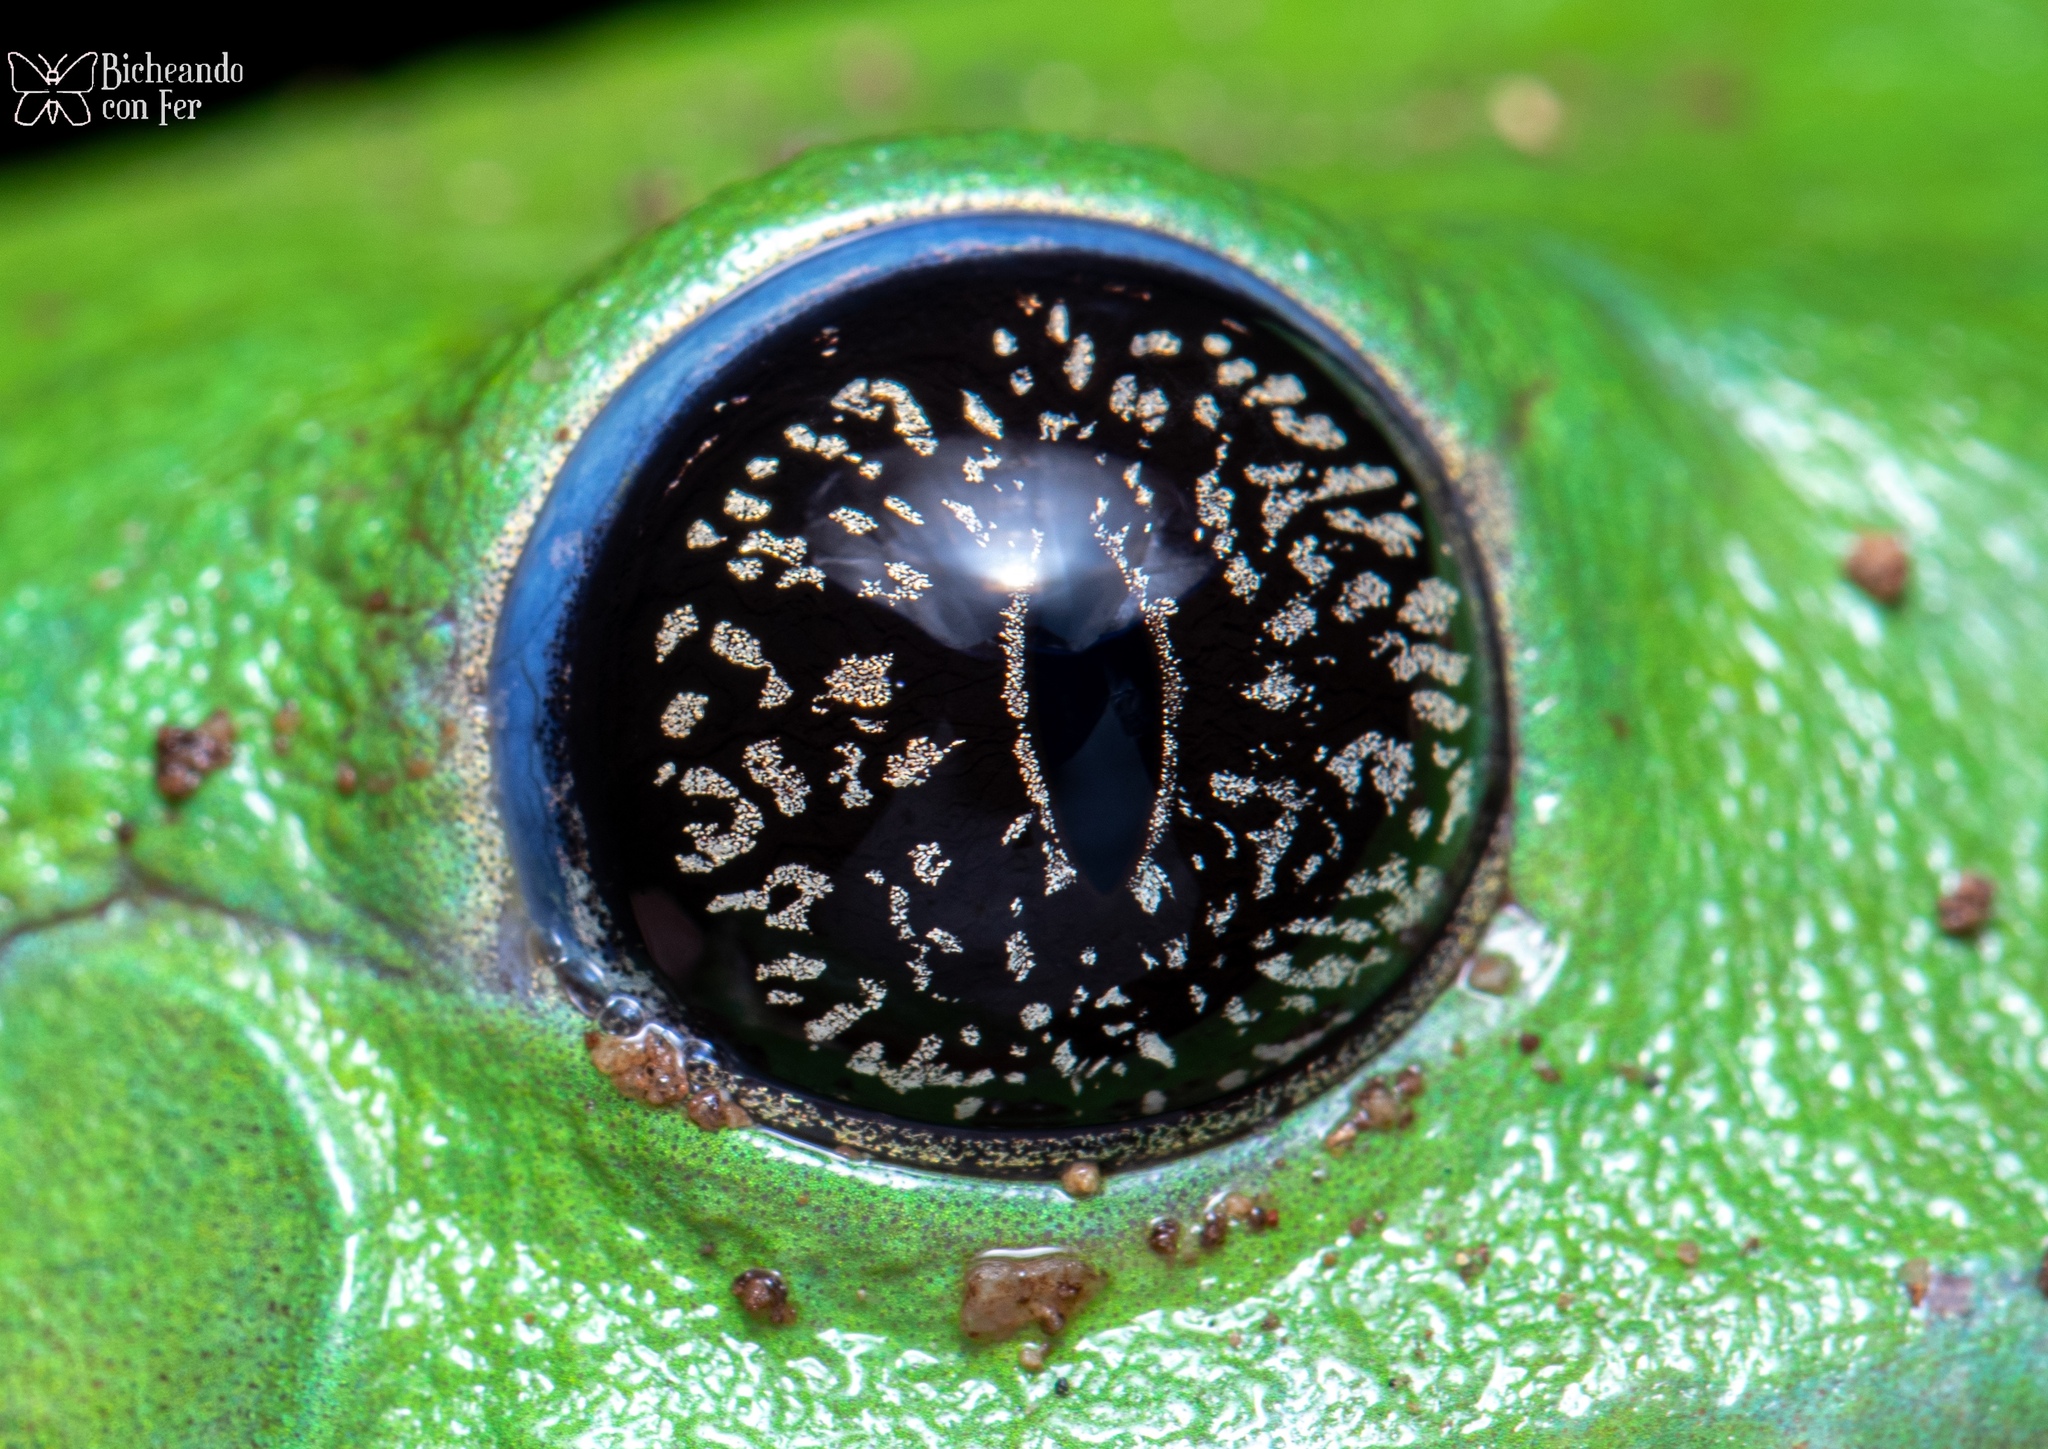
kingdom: Animalia
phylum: Chordata
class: Amphibia
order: Anura
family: Phyllomedusidae
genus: Agalychnis
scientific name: Agalychnis dacnicolor
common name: Mexican giant tree frog
